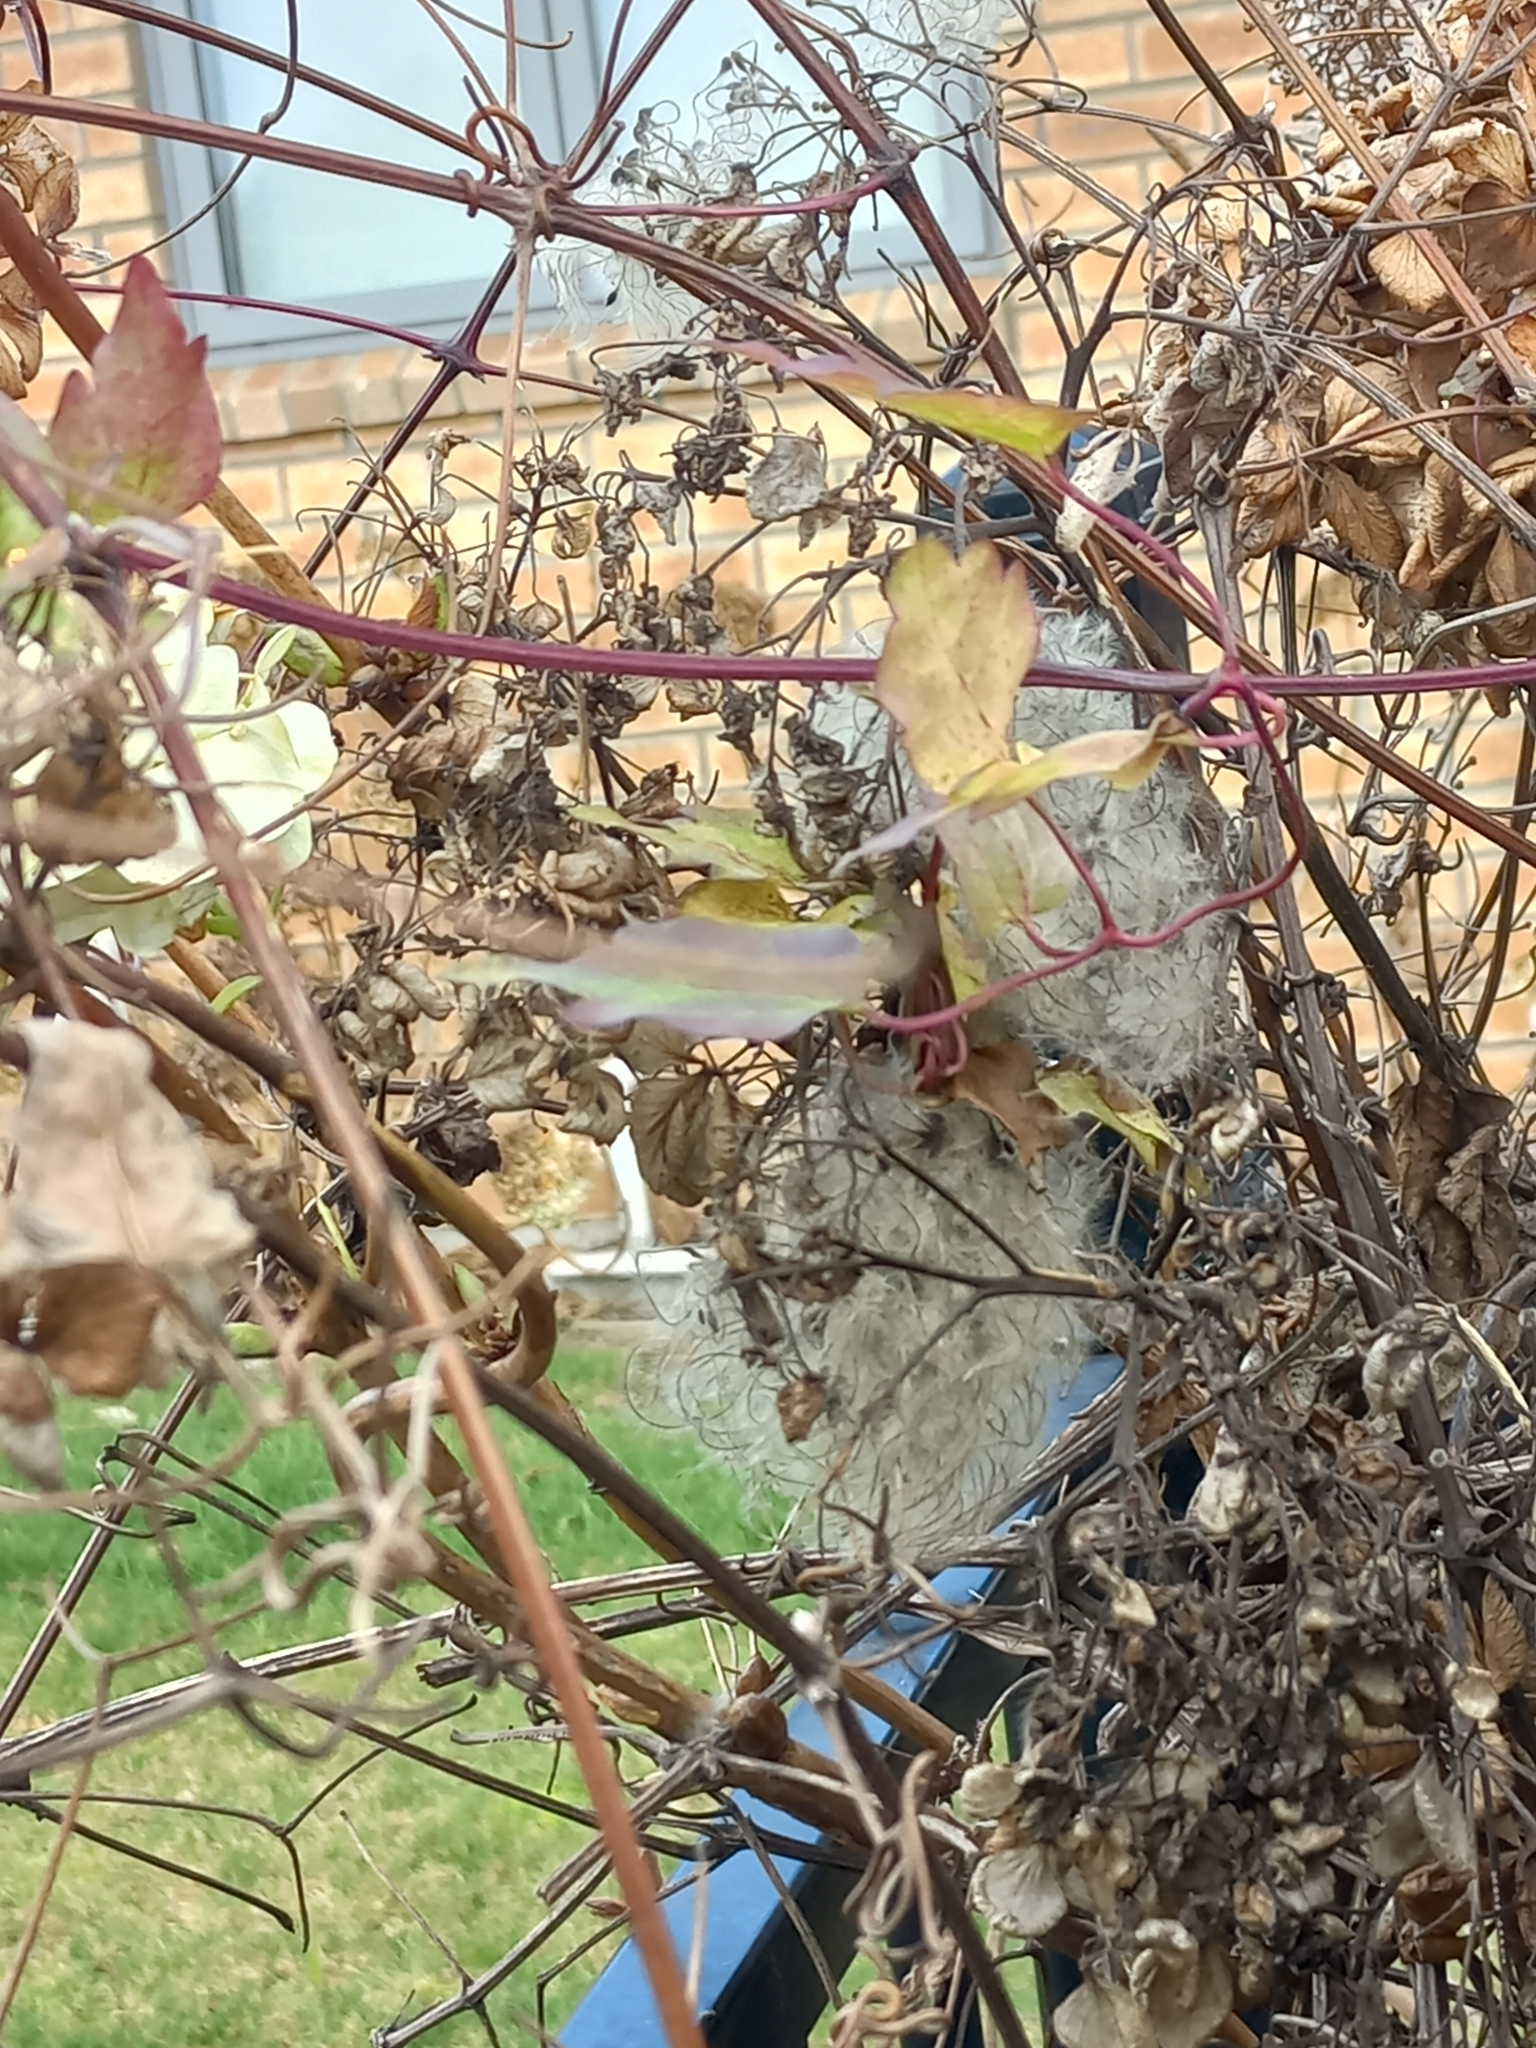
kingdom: Plantae
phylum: Tracheophyta
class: Magnoliopsida
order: Ranunculales
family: Ranunculaceae
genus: Clematis
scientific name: Clematis vitalba
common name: Evergreen clematis
